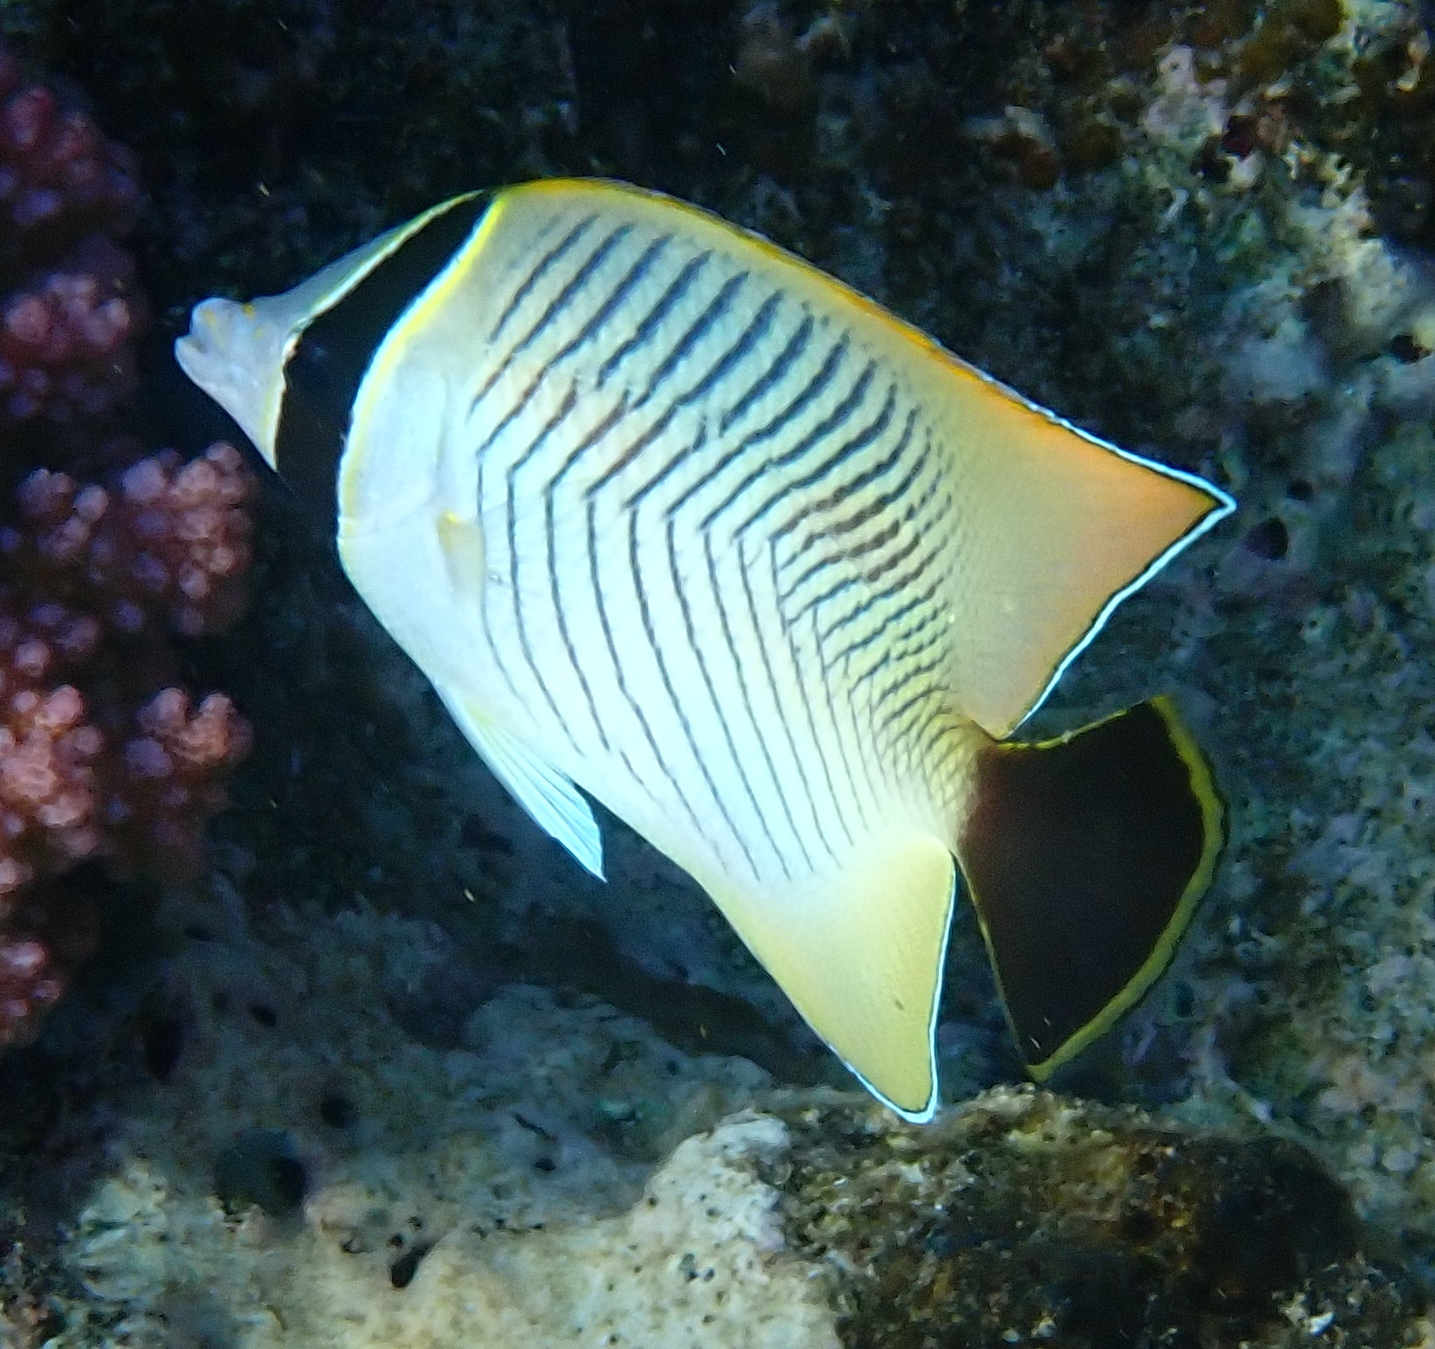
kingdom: Animalia
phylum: Chordata
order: Perciformes
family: Chaetodontidae
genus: Chaetodon
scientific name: Chaetodon trifascialis
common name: Chevroned butterflyfish
